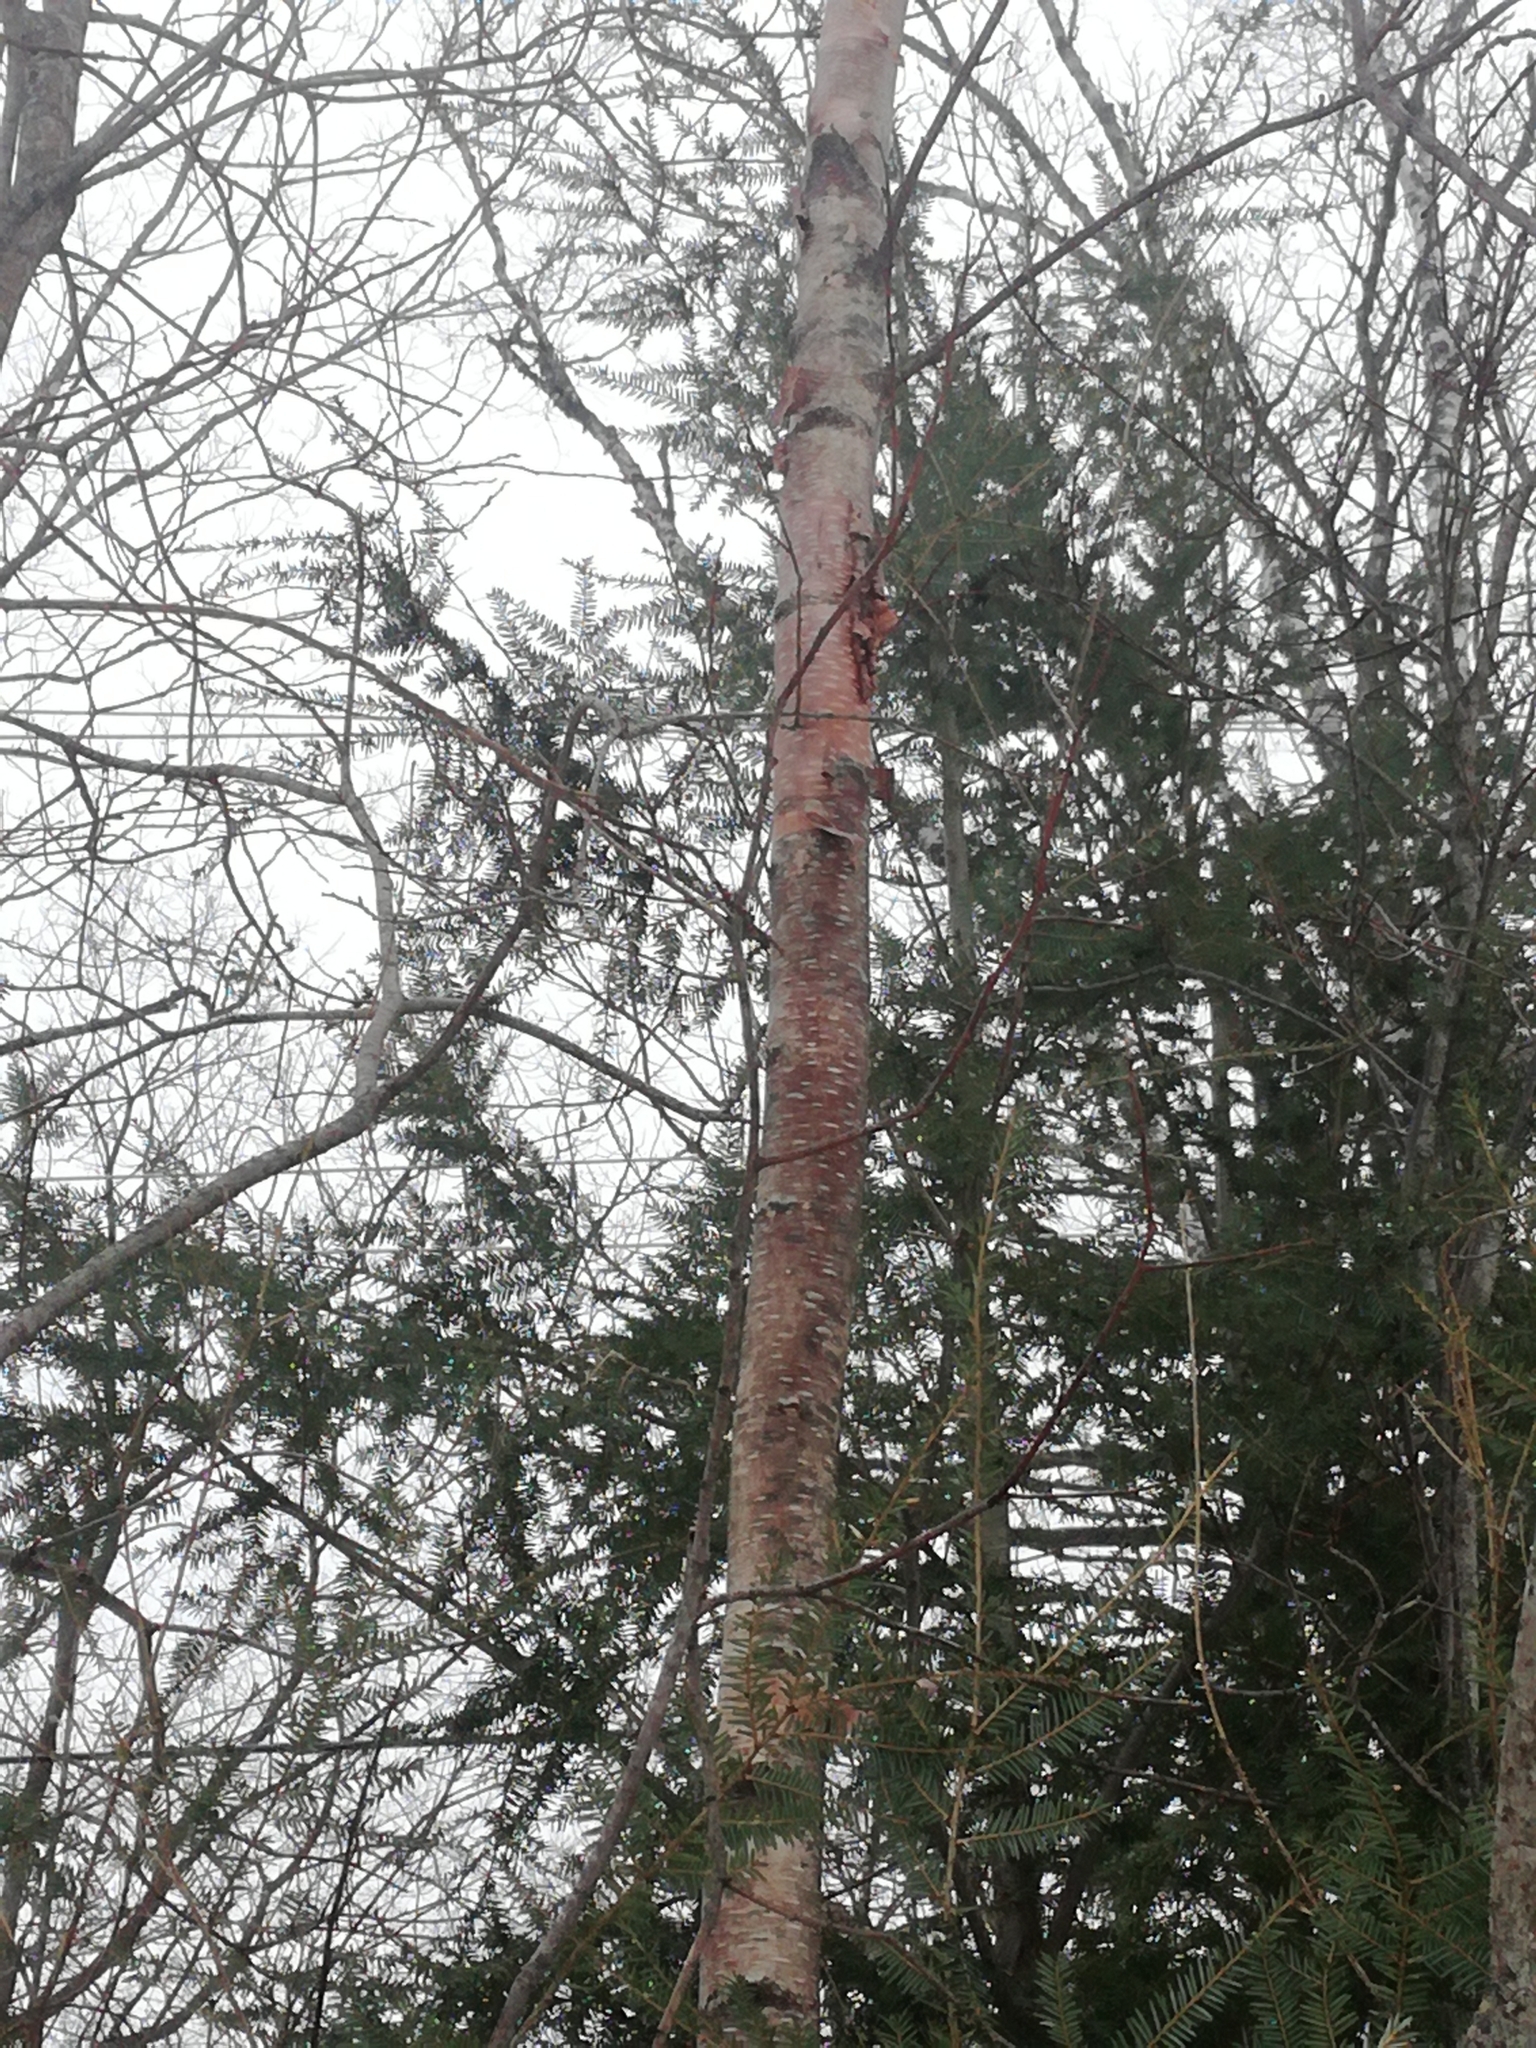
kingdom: Plantae
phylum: Tracheophyta
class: Magnoliopsida
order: Fagales
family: Betulaceae
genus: Betula
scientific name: Betula cordifolia
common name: Mountain white birch
